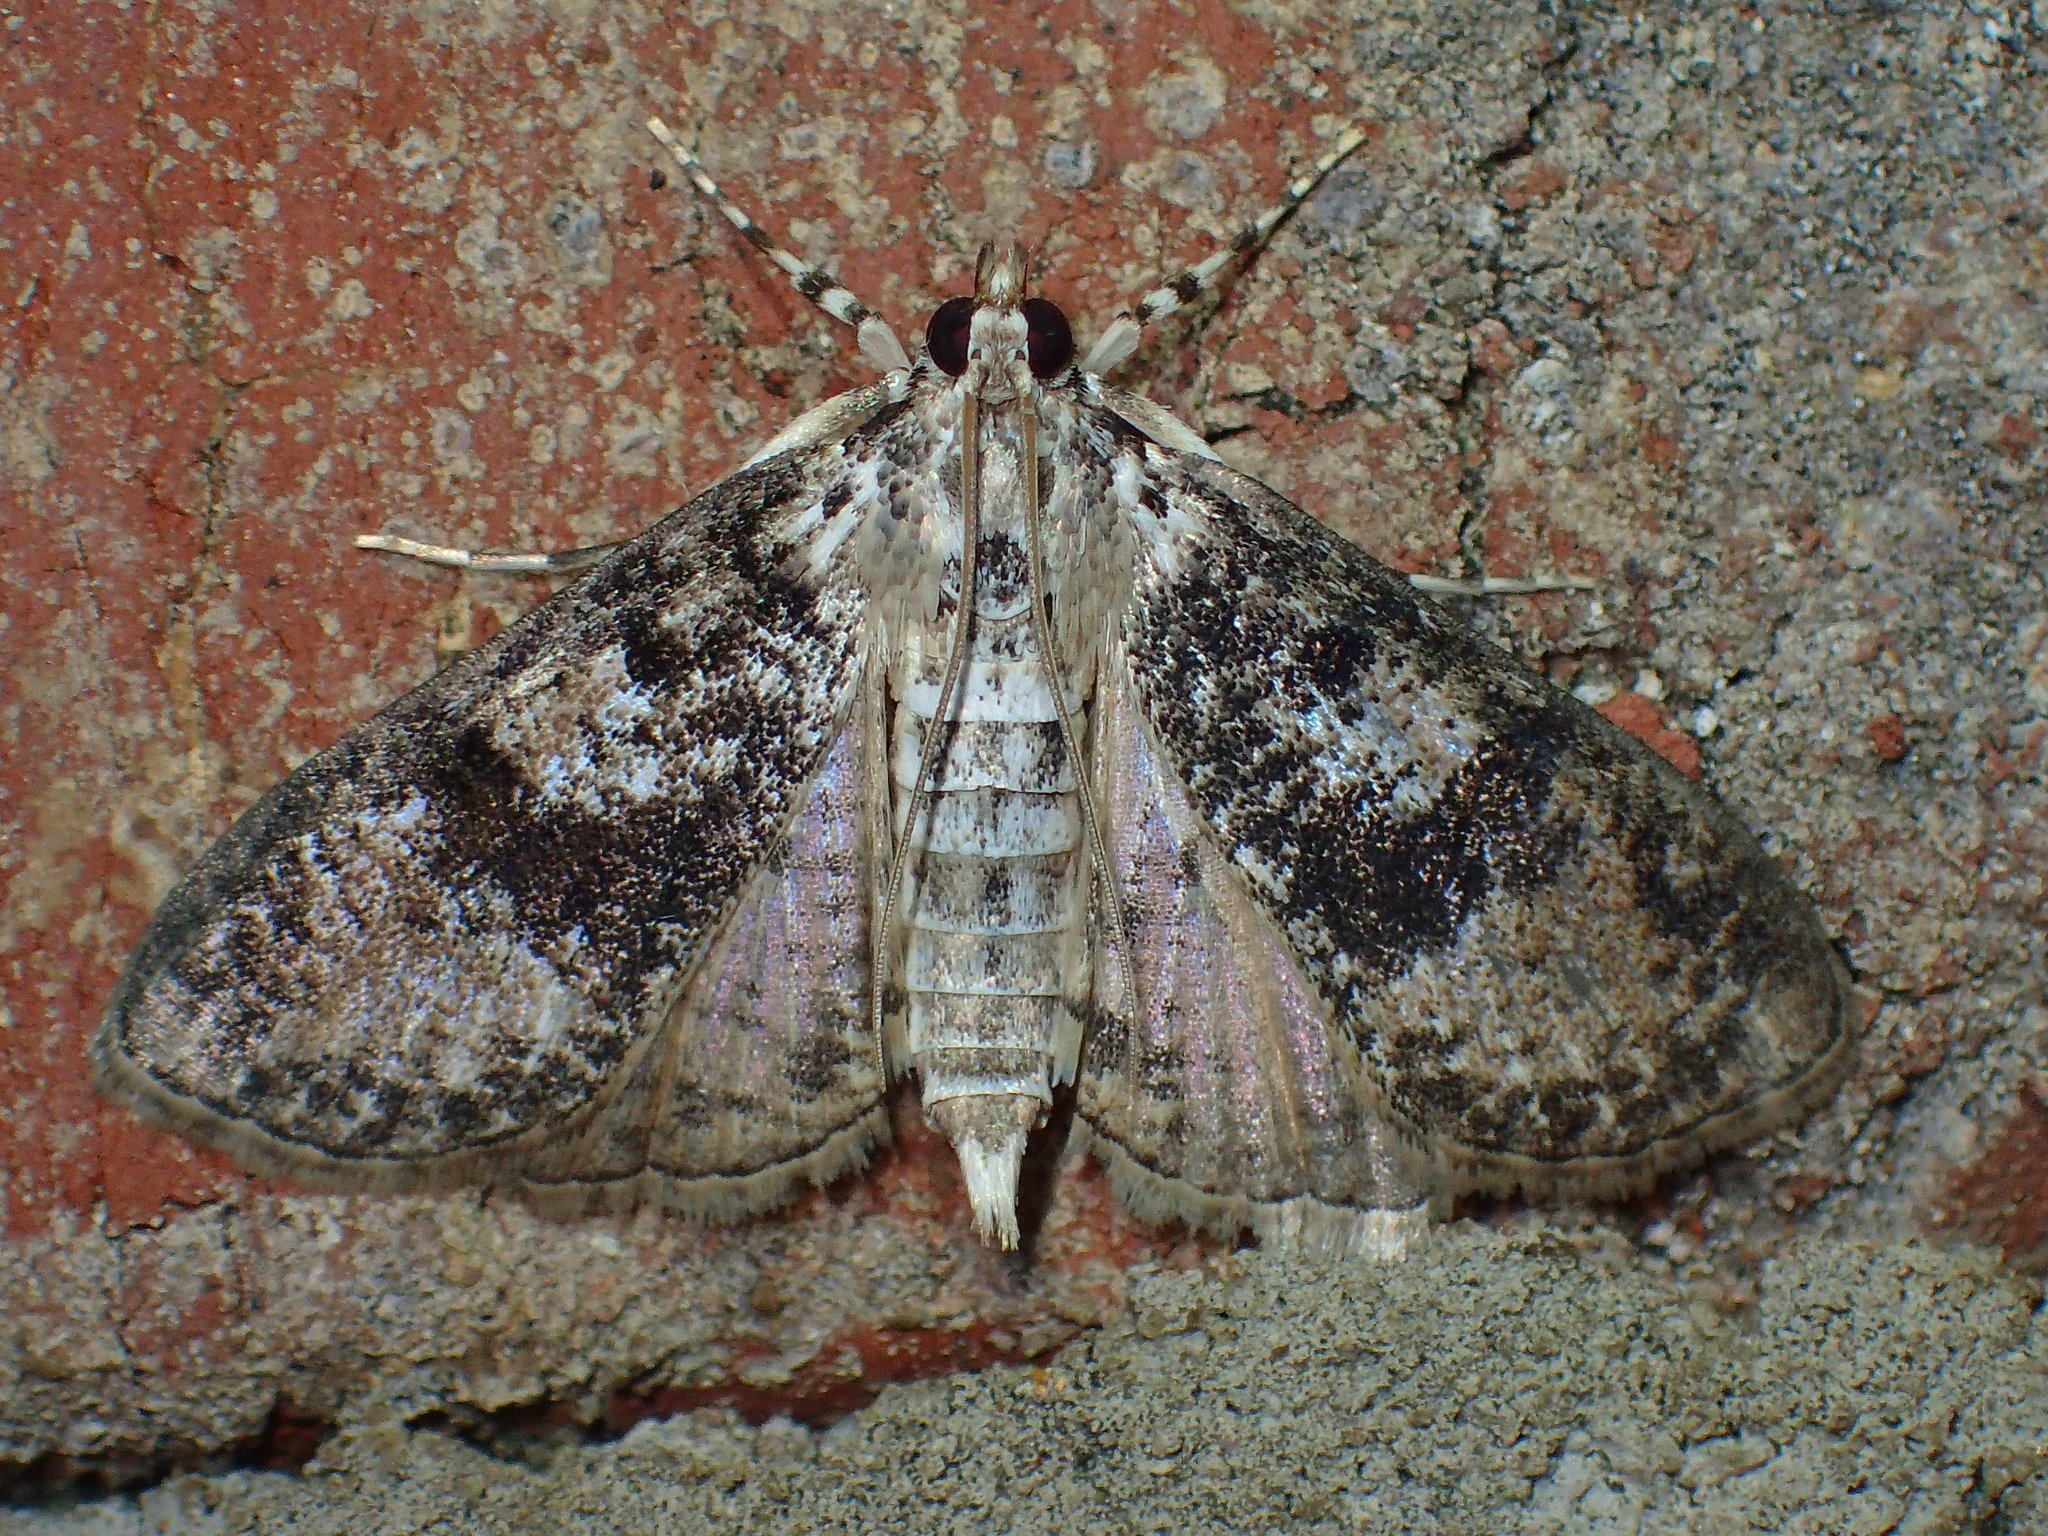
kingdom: Animalia
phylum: Arthropoda
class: Insecta
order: Lepidoptera
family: Crambidae
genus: Palpita
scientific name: Palpita magniferalis
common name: Splendid palpita moth
